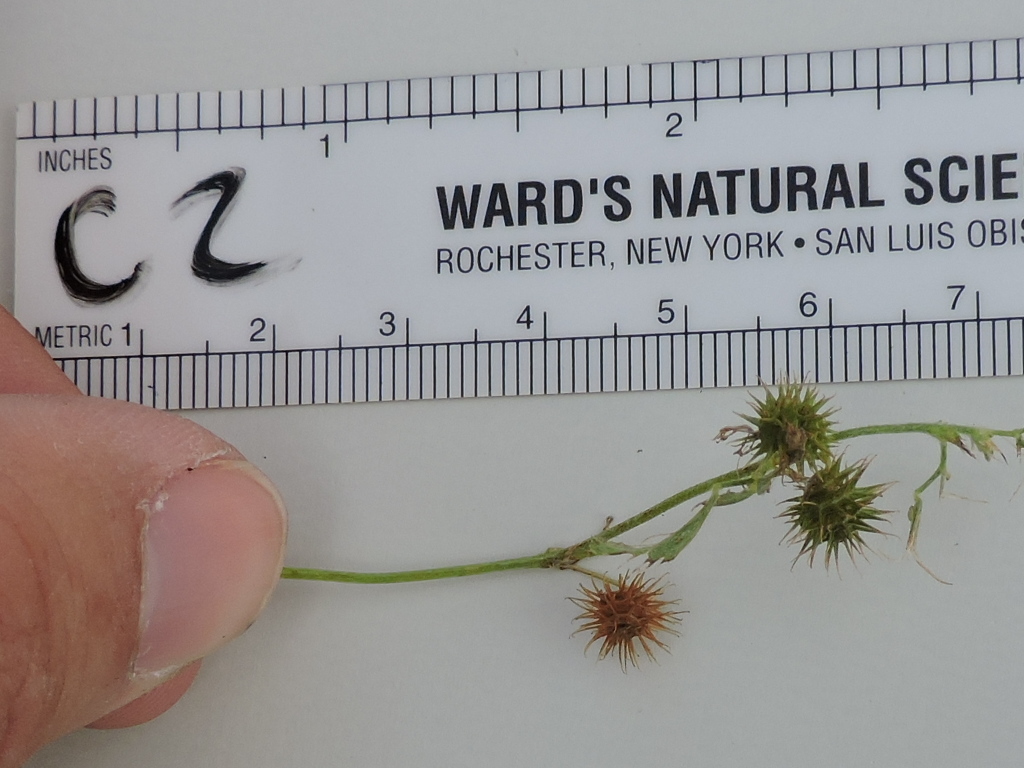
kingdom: Plantae
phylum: Tracheophyta
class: Magnoliopsida
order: Fabales
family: Fabaceae
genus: Medicago
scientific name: Medicago polymorpha
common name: Burclover
